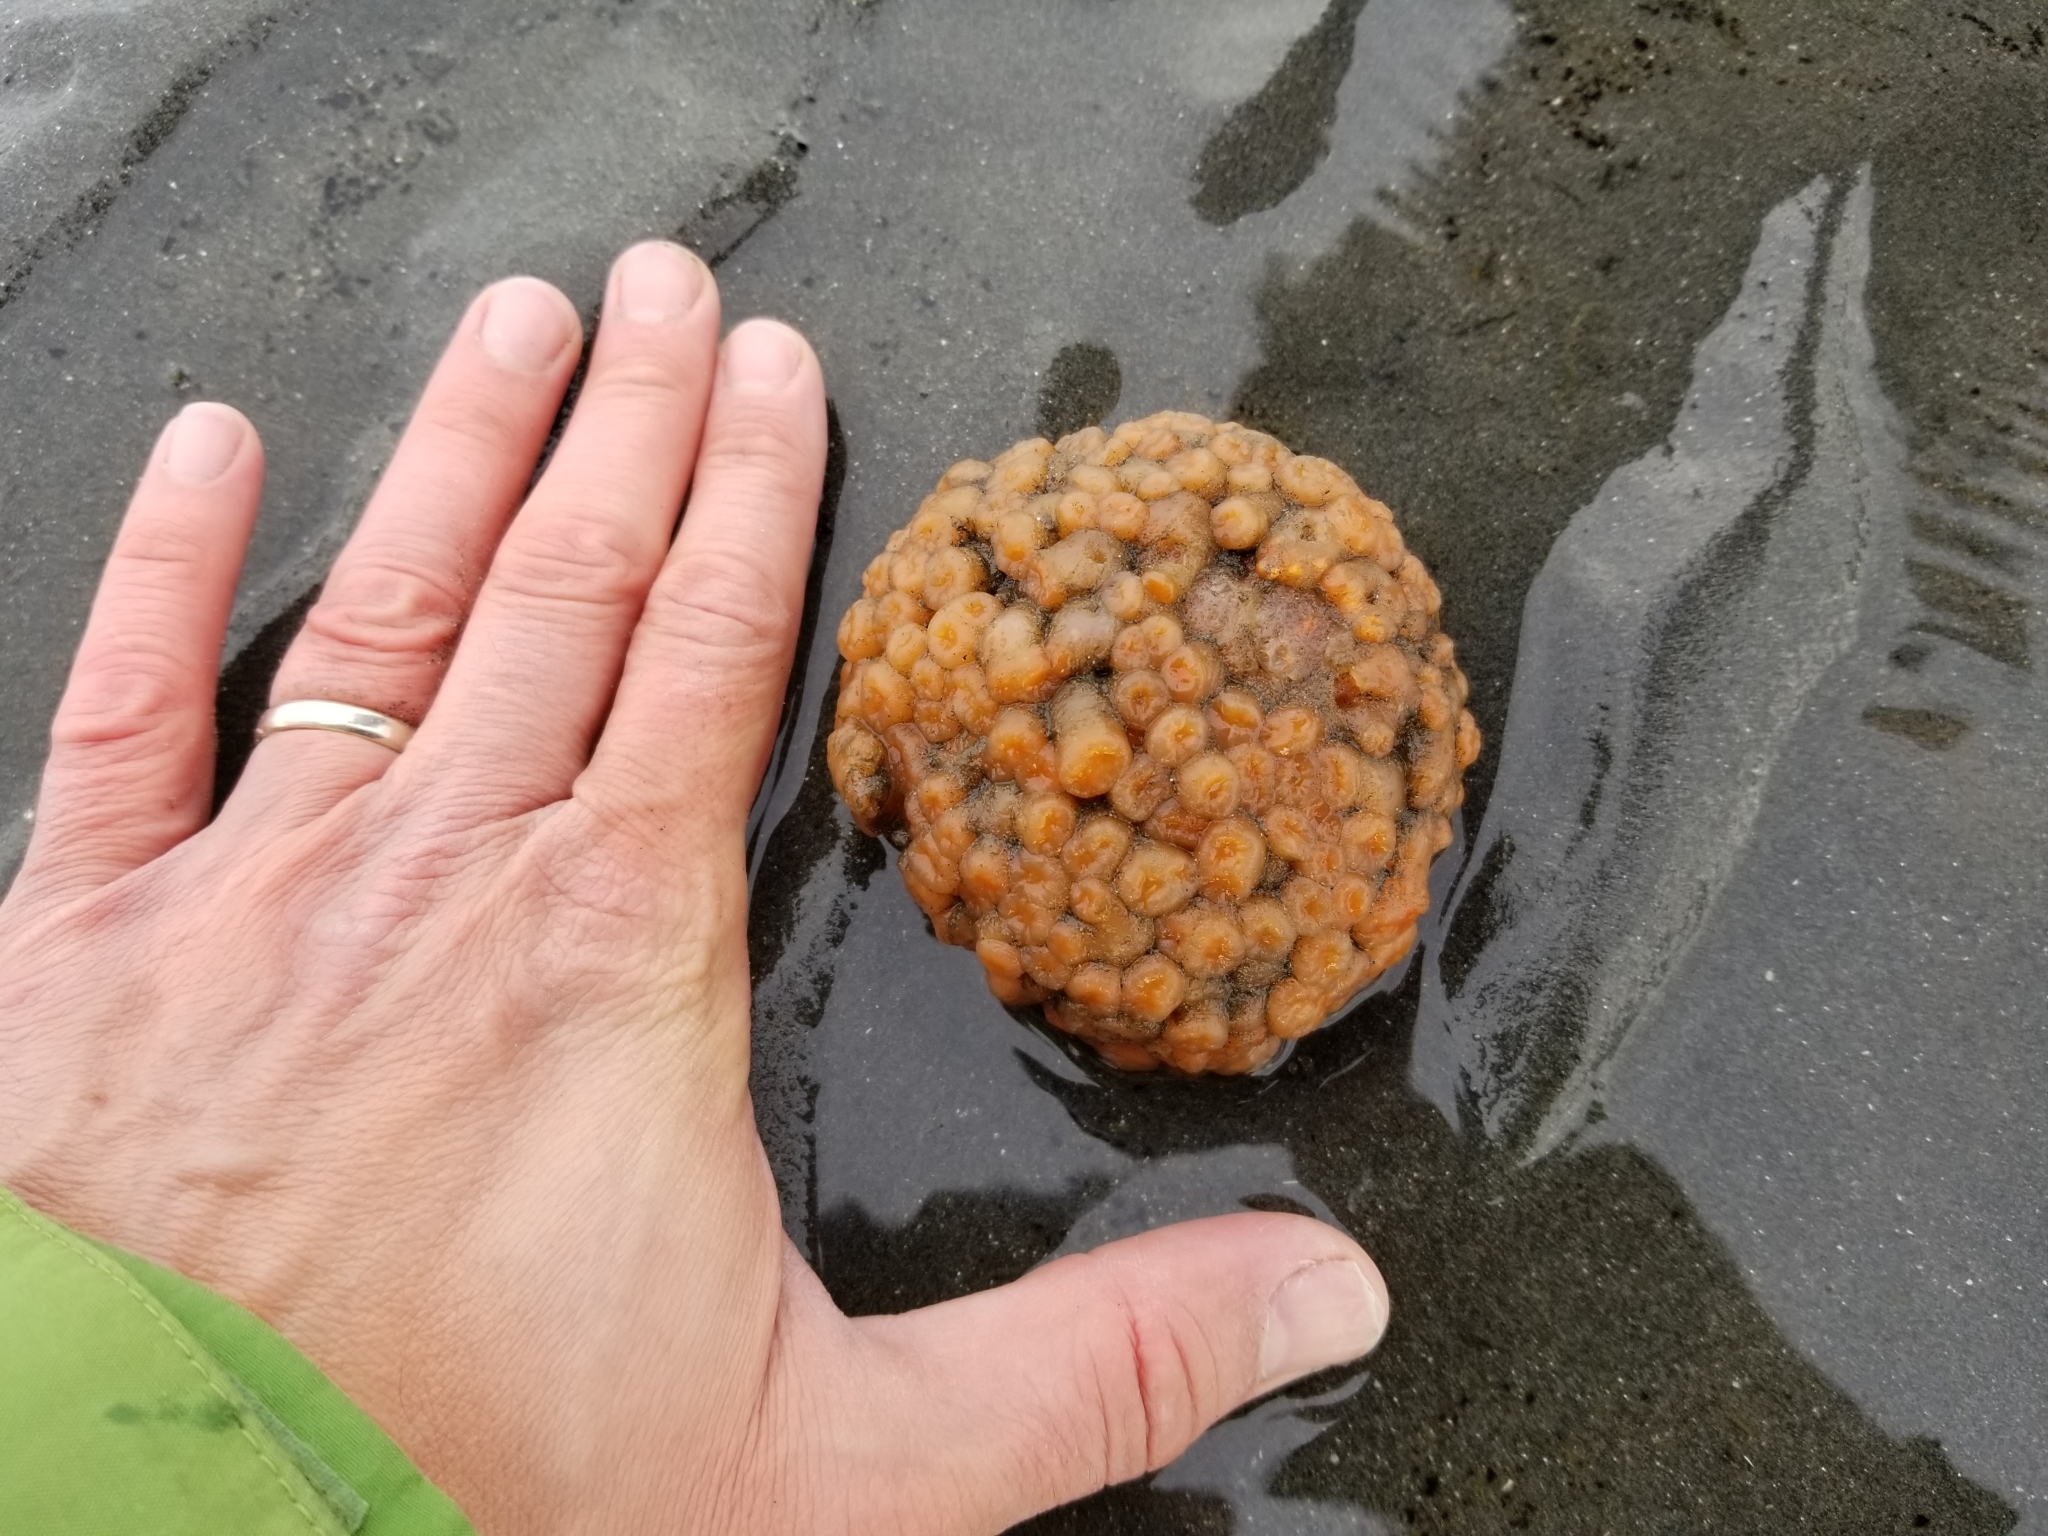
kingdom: Animalia
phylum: Chordata
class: Ascidiacea
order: Aplousobranchia
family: Polyclinidae
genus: Aplidium
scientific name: Aplidium coei
